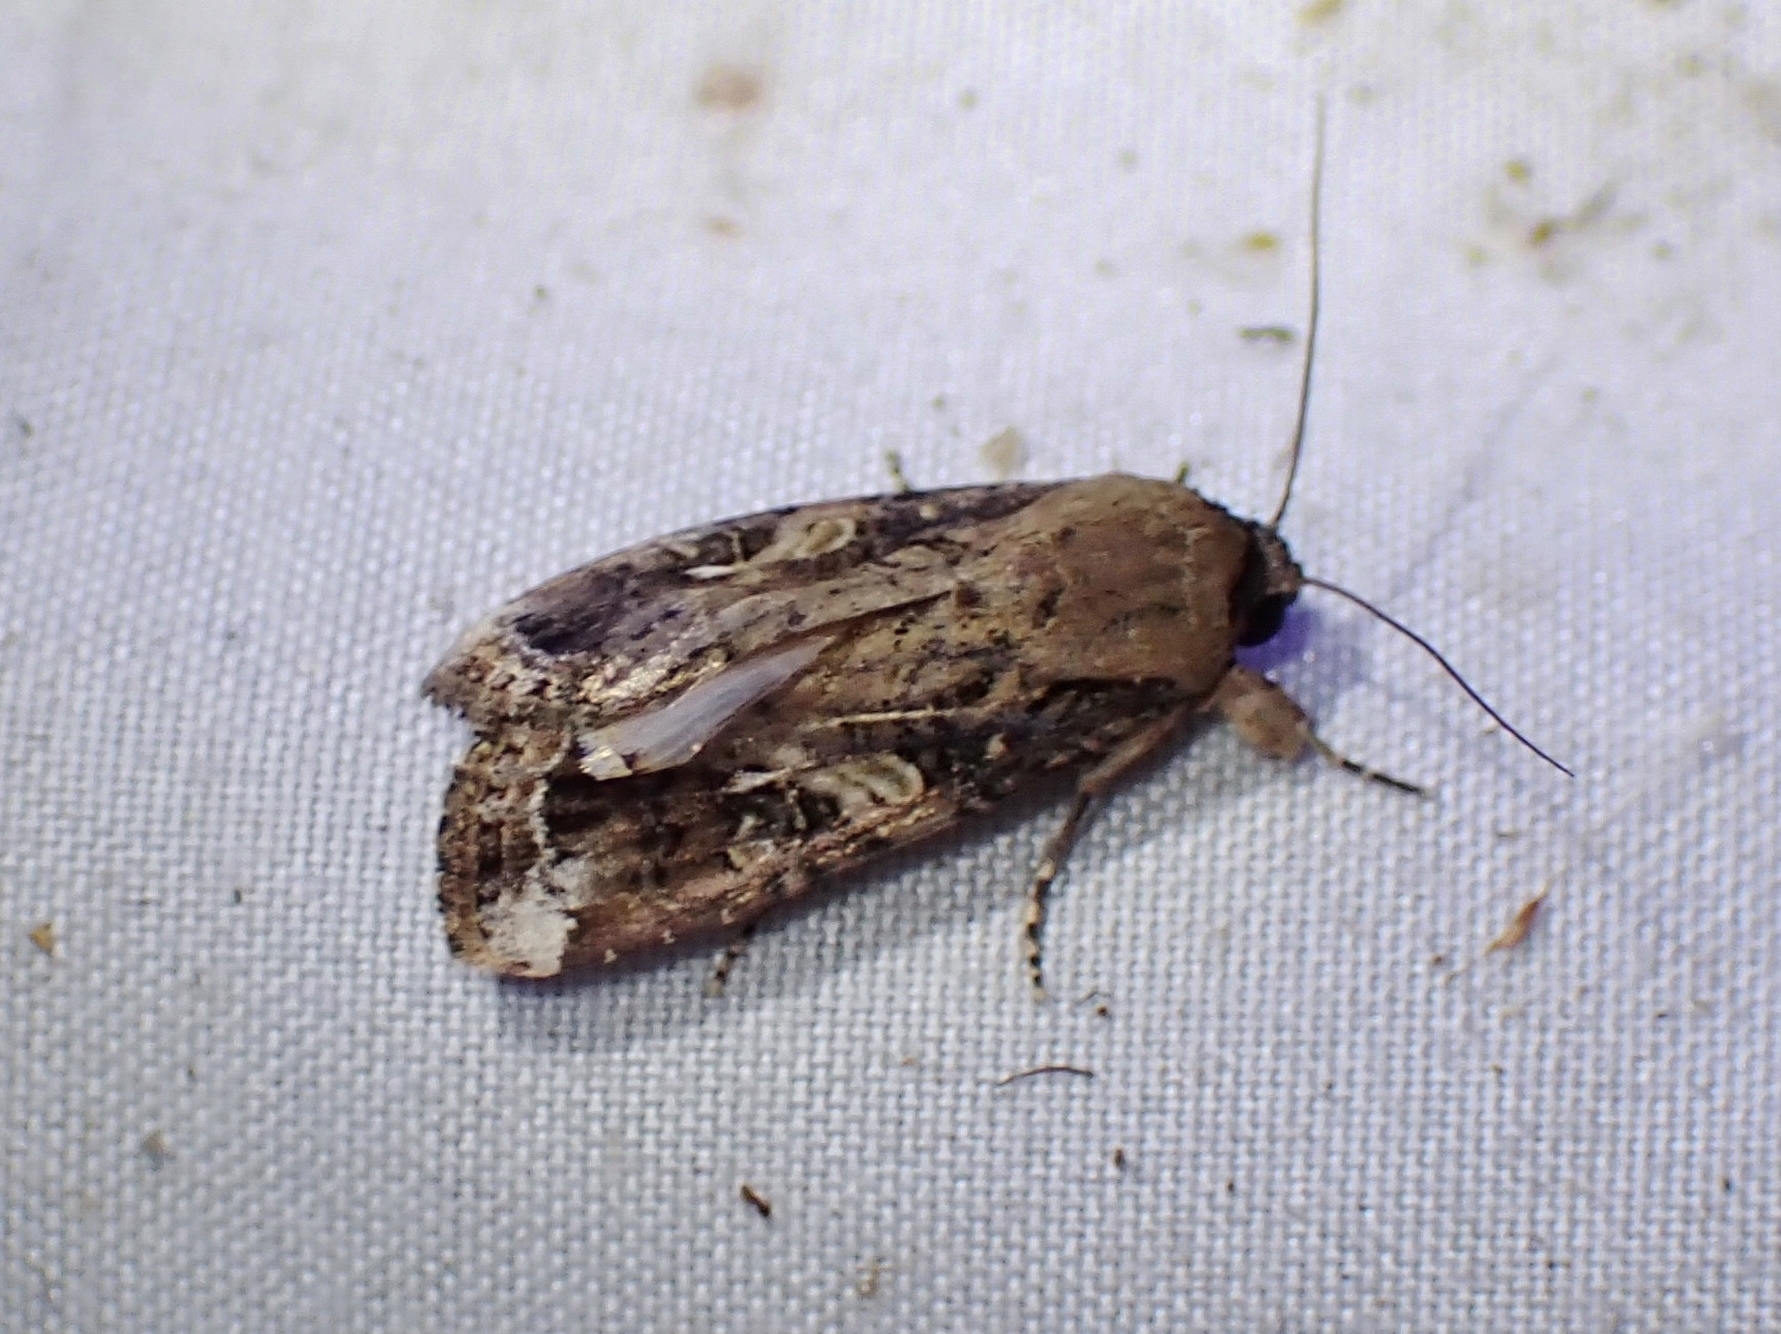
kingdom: Animalia
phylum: Arthropoda
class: Insecta
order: Lepidoptera
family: Noctuidae
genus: Spodoptera
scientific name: Spodoptera frugiperda
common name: Fall armyworm
